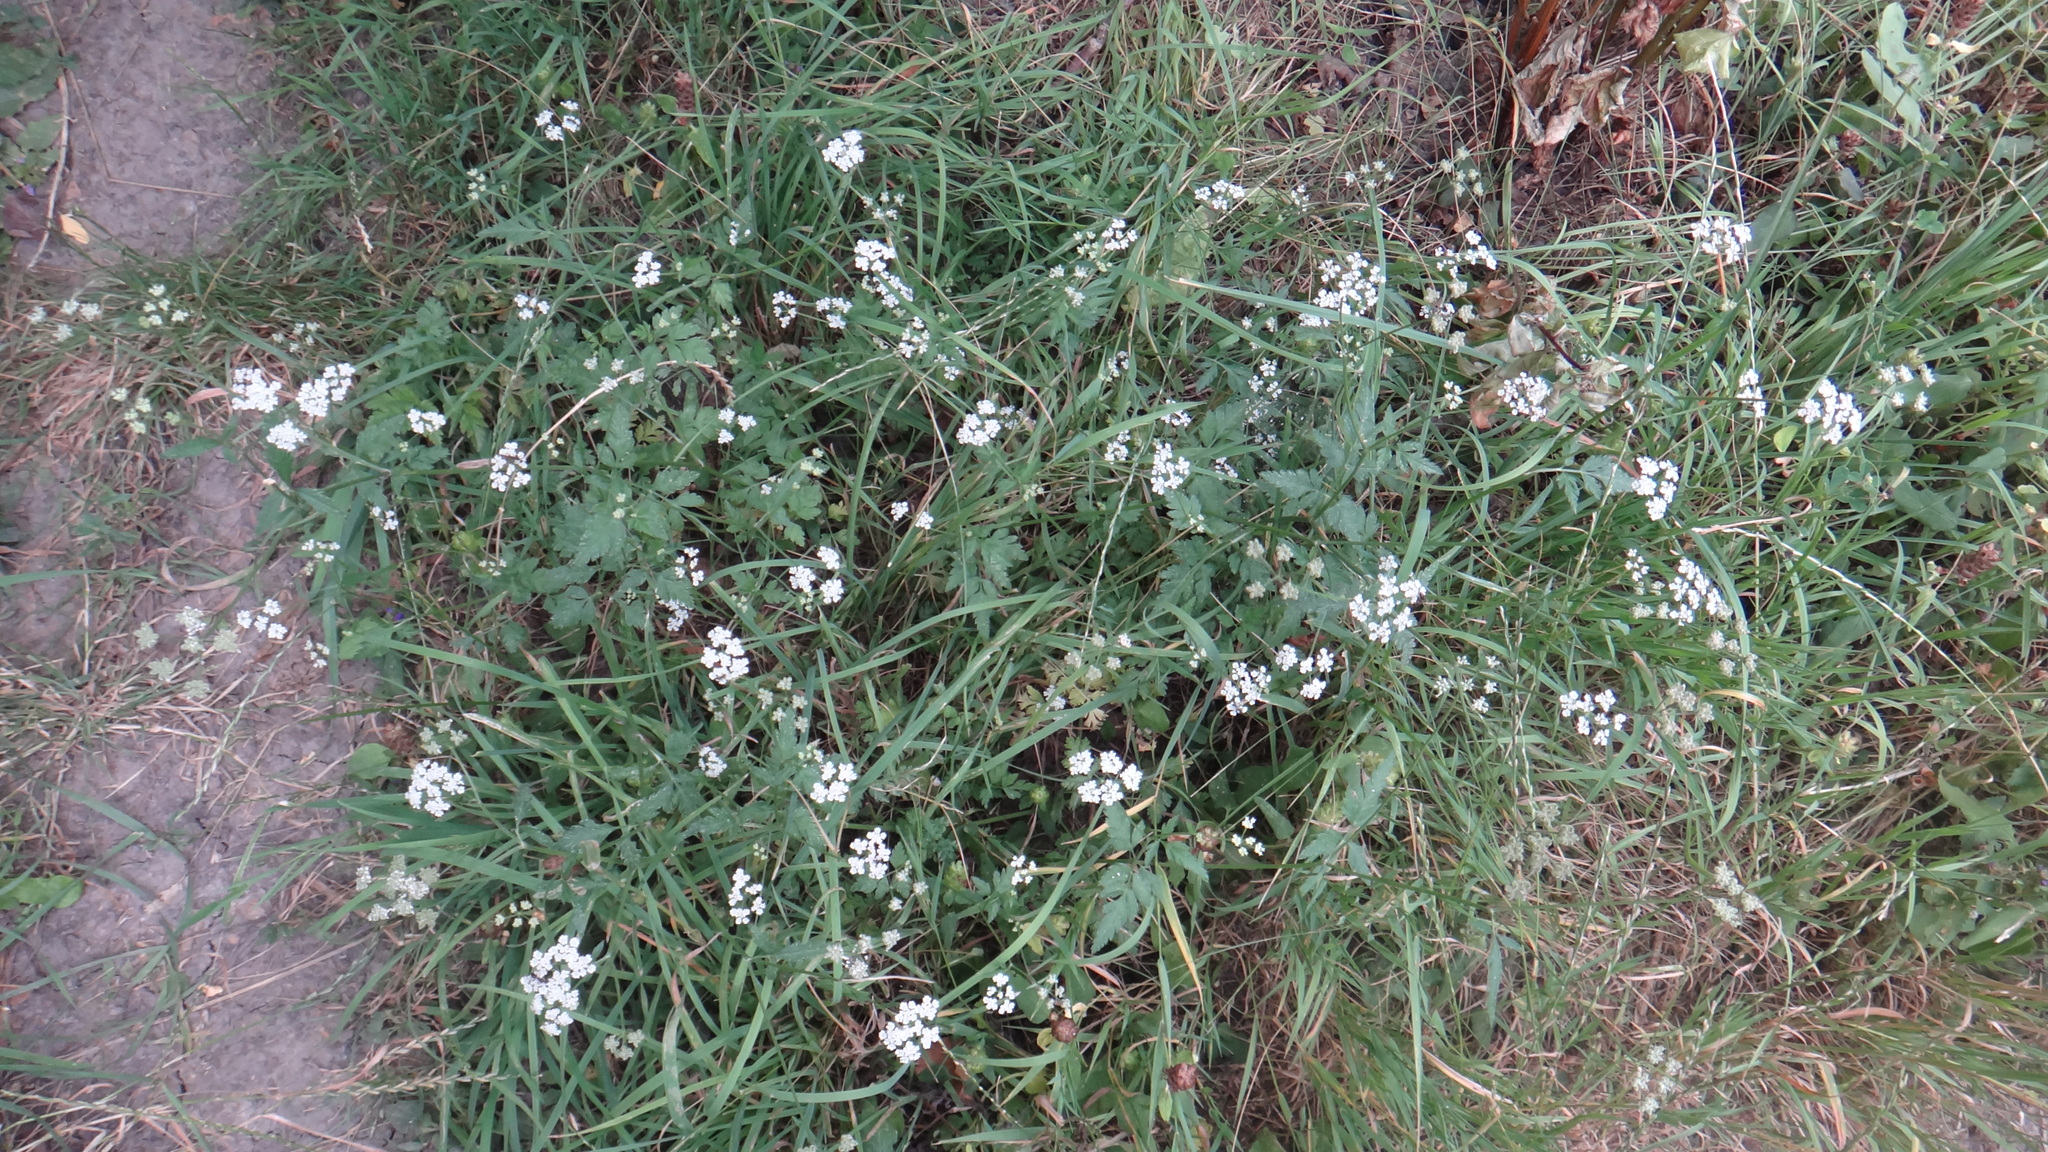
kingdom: Plantae
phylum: Tracheophyta
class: Magnoliopsida
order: Apiales
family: Apiaceae
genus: Torilis
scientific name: Torilis japonica
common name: Upright hedge-parsley
